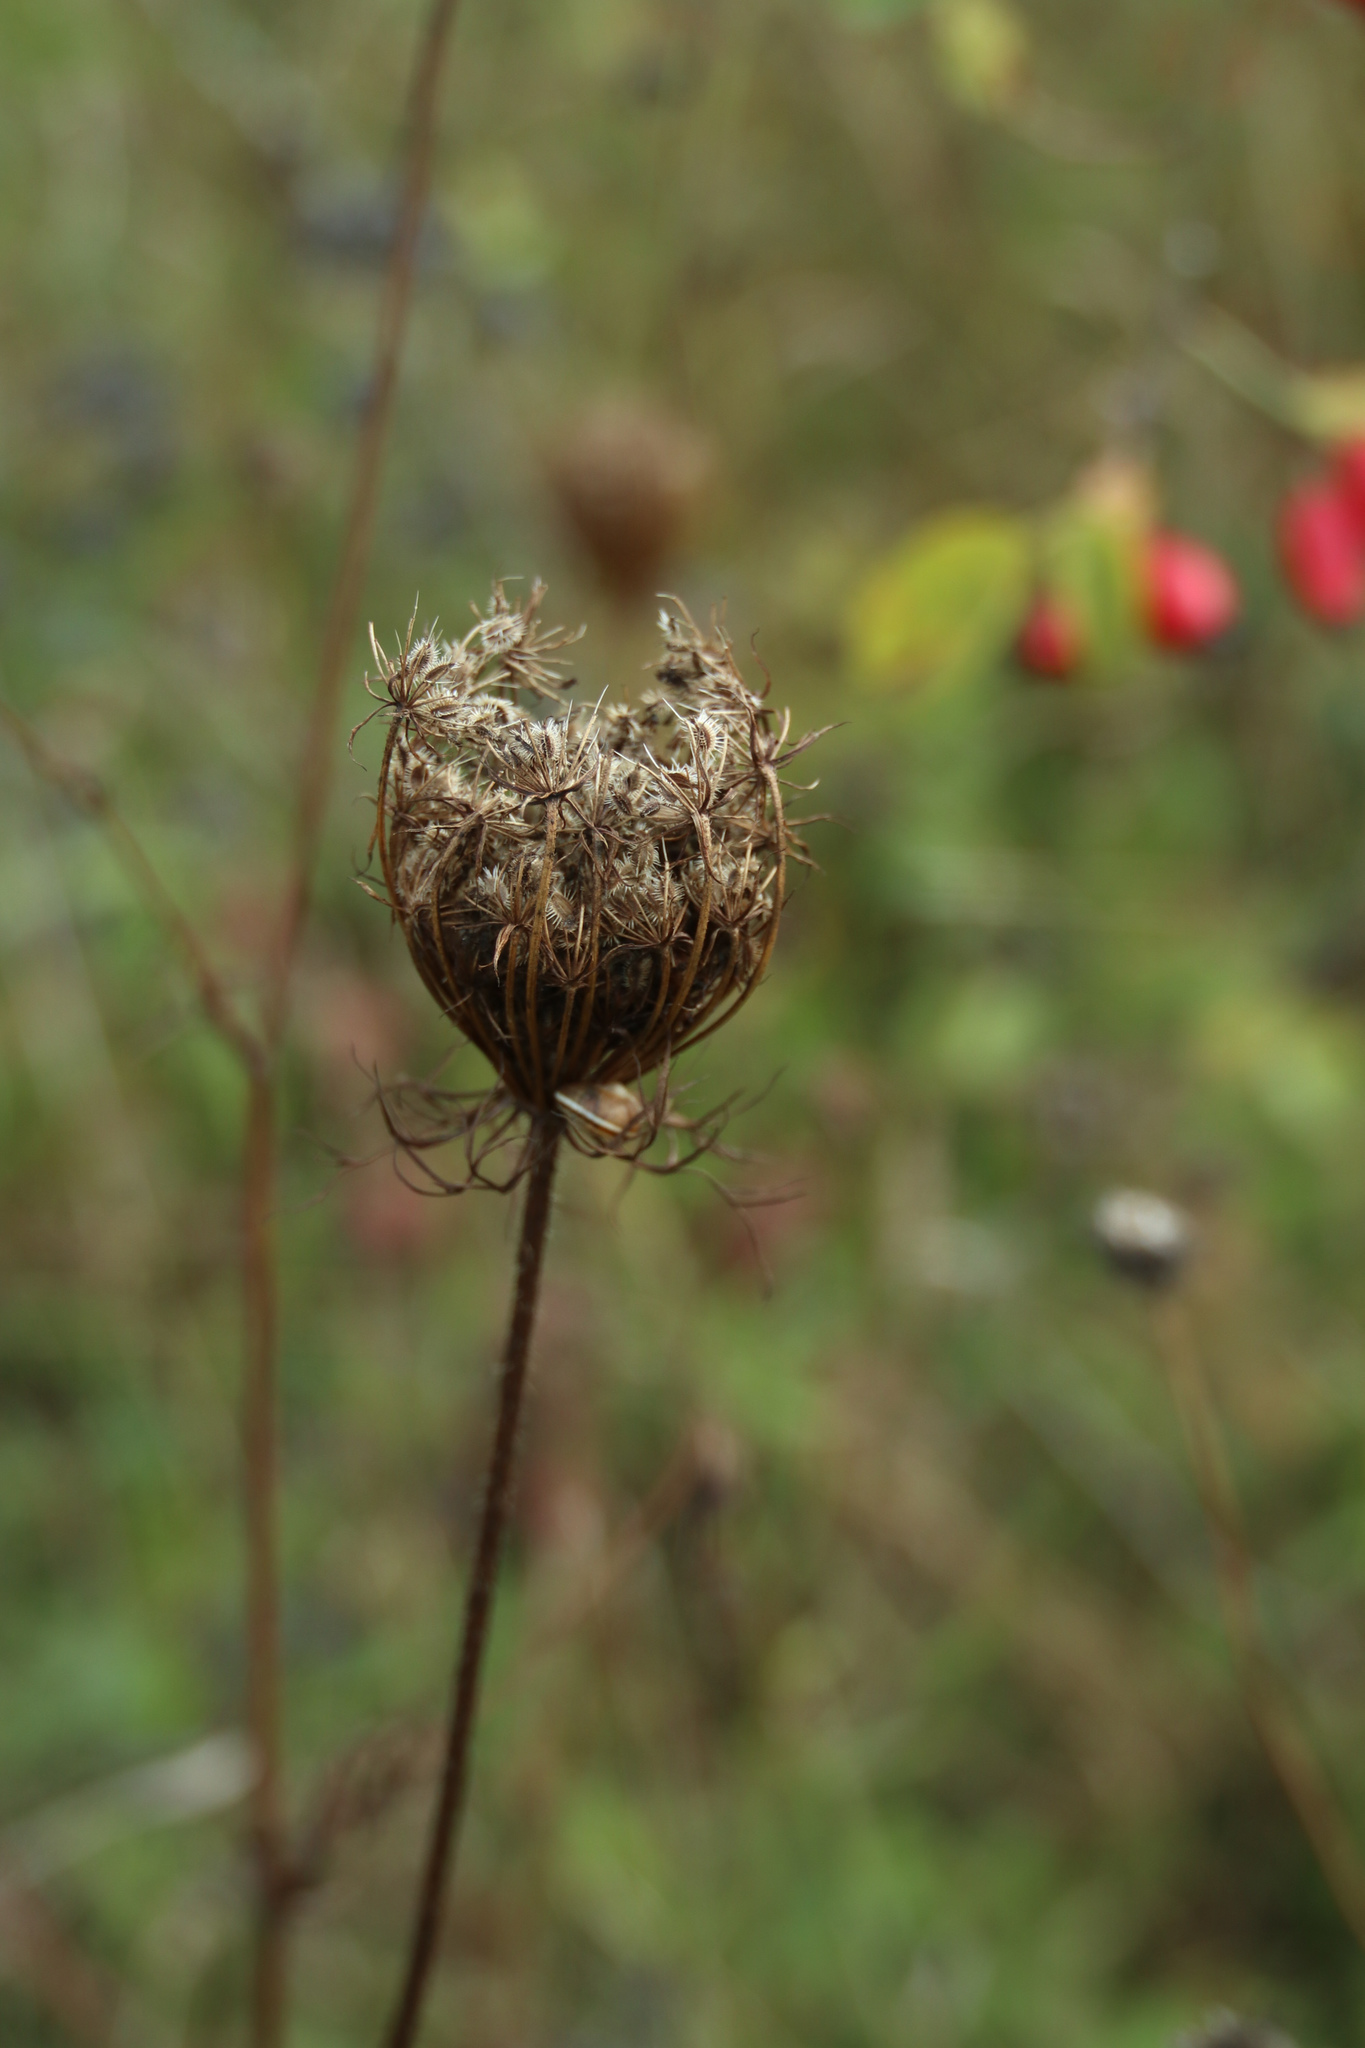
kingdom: Plantae
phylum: Tracheophyta
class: Magnoliopsida
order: Apiales
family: Apiaceae
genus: Daucus
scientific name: Daucus carota
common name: Wild carrot
